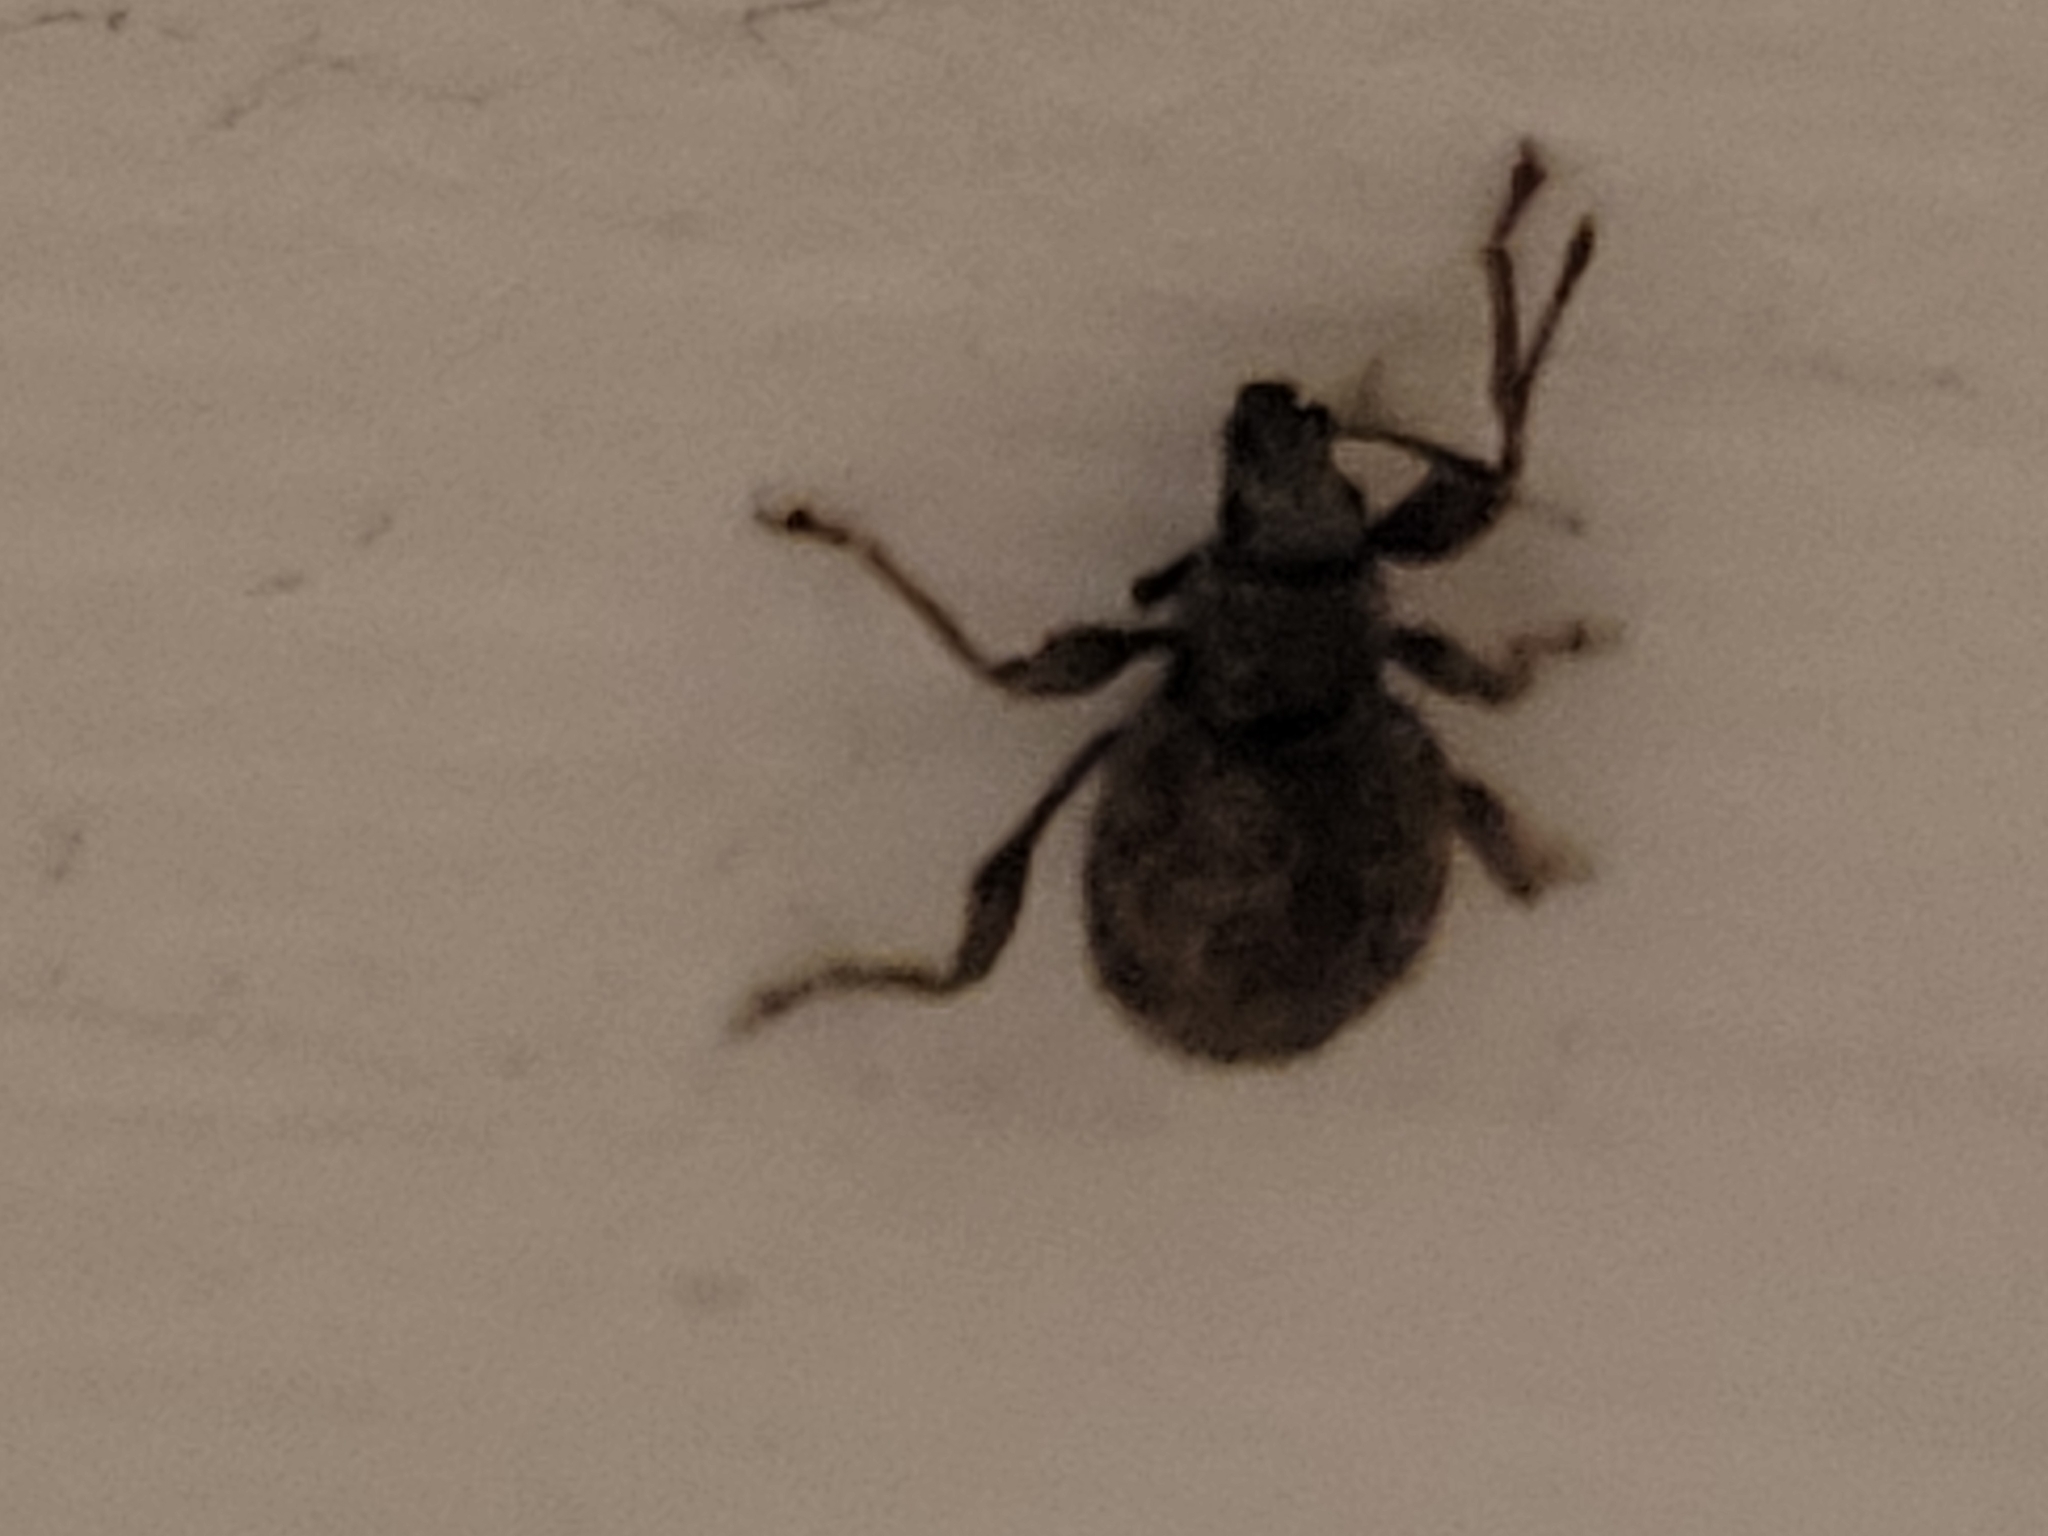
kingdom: Animalia
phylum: Arthropoda
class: Insecta
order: Coleoptera
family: Curculionidae
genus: Otiorhynchus
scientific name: Otiorhynchus crataegi
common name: Privet weevil
